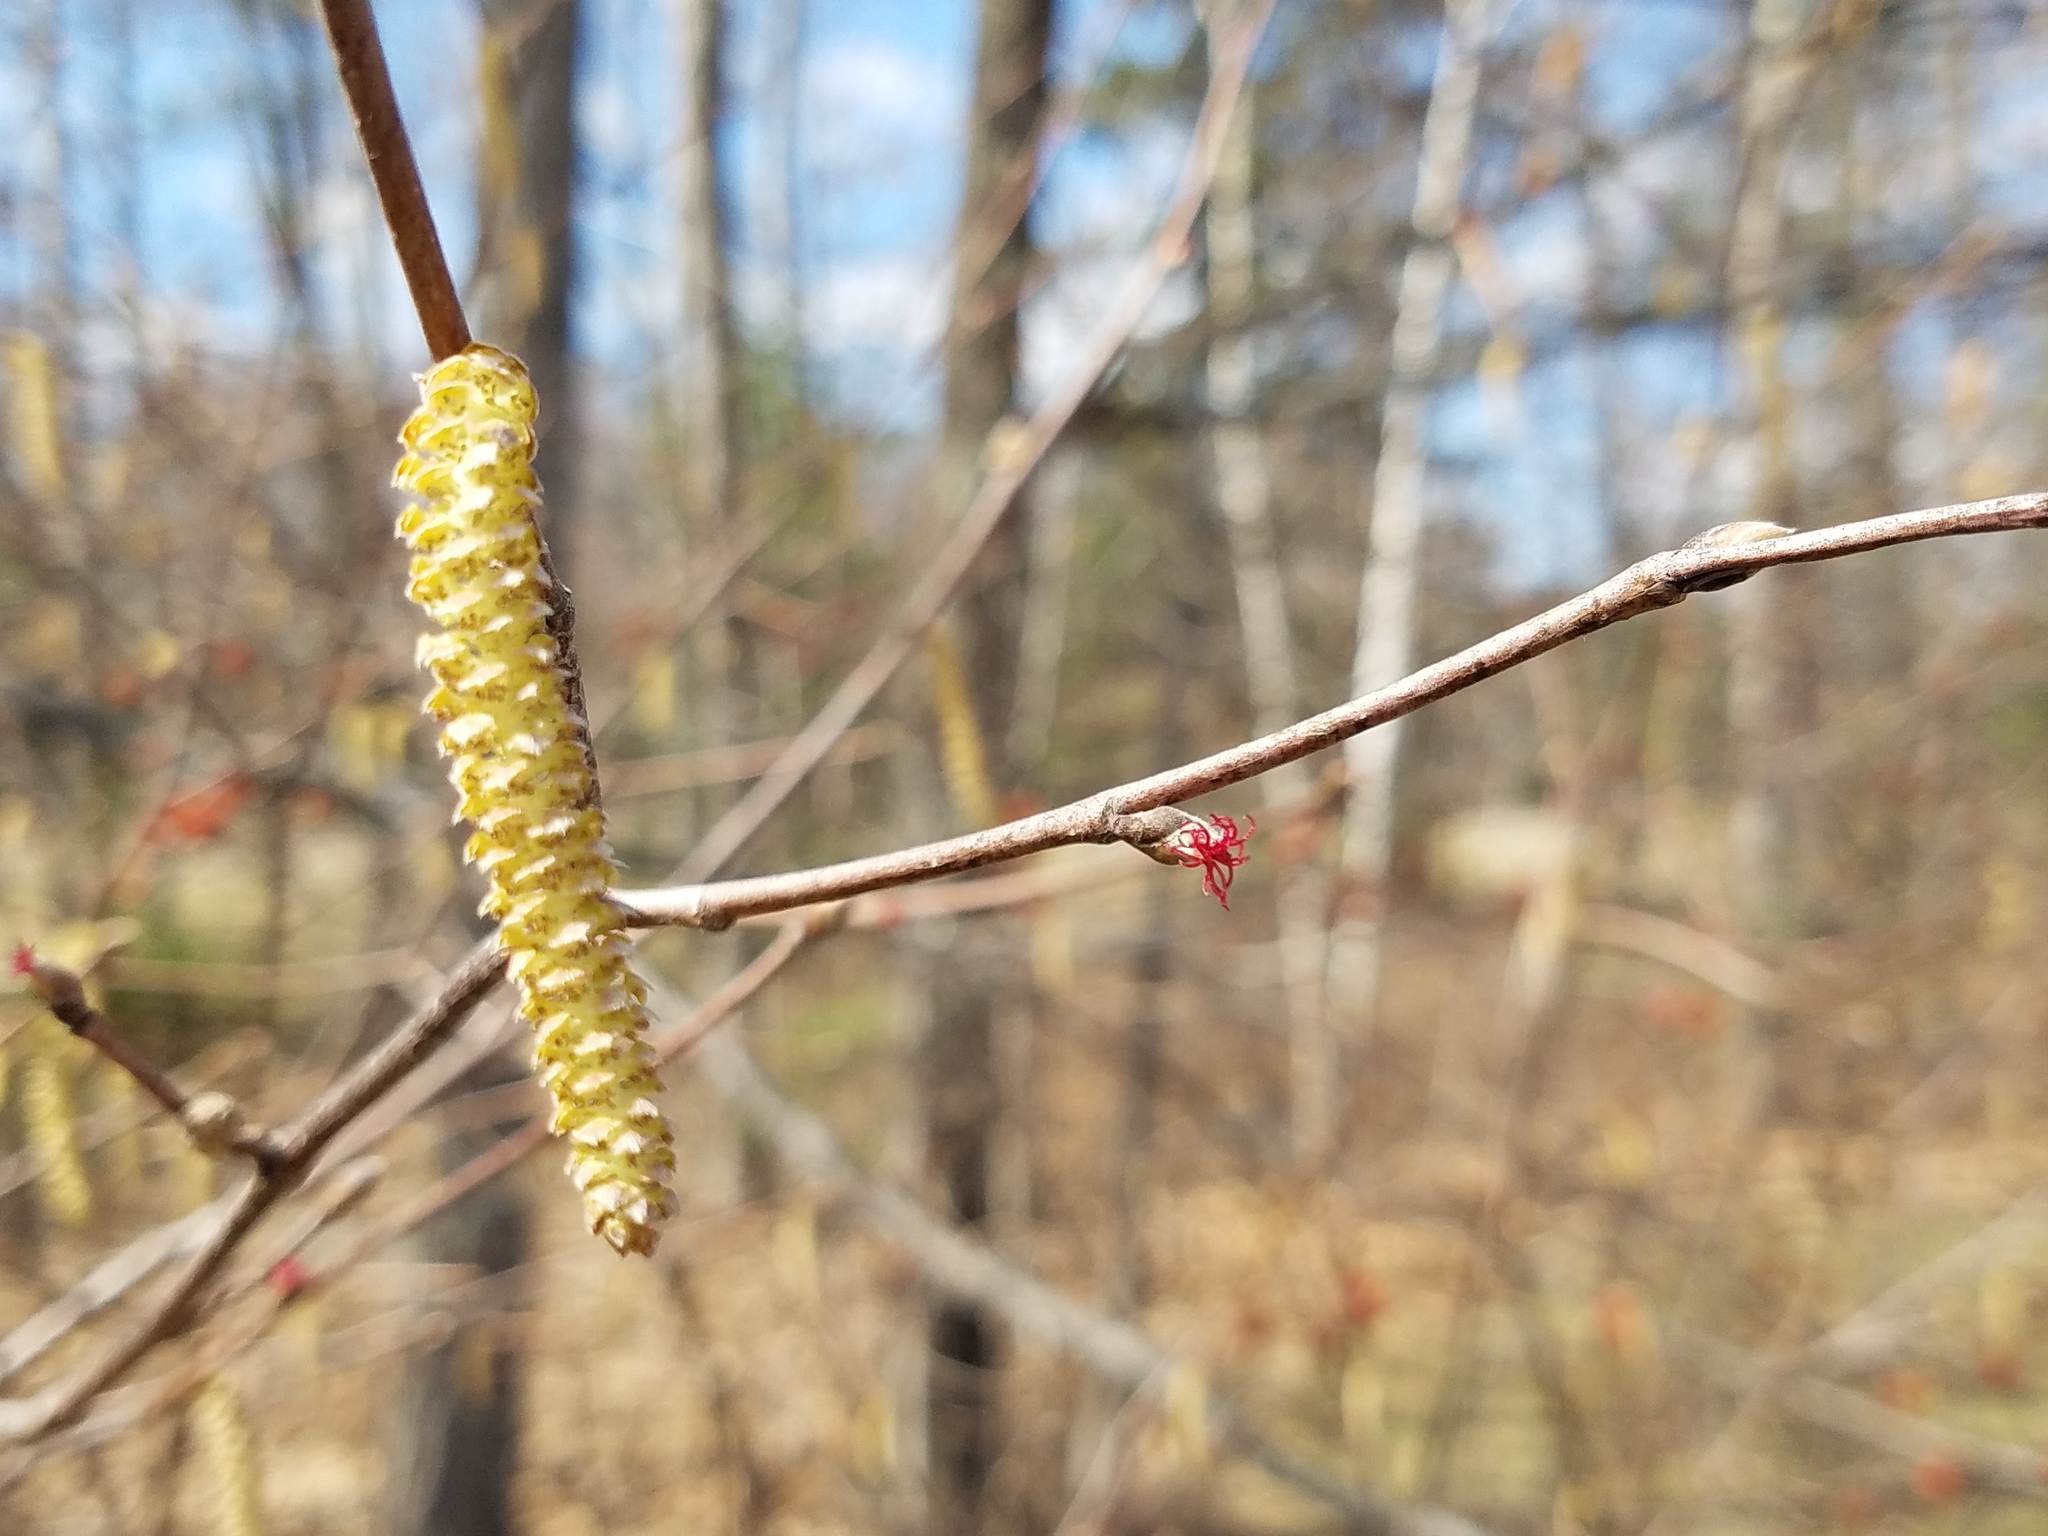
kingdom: Plantae
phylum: Tracheophyta
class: Magnoliopsida
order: Fagales
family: Betulaceae
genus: Corylus
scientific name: Corylus cornuta
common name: Beaked hazel
